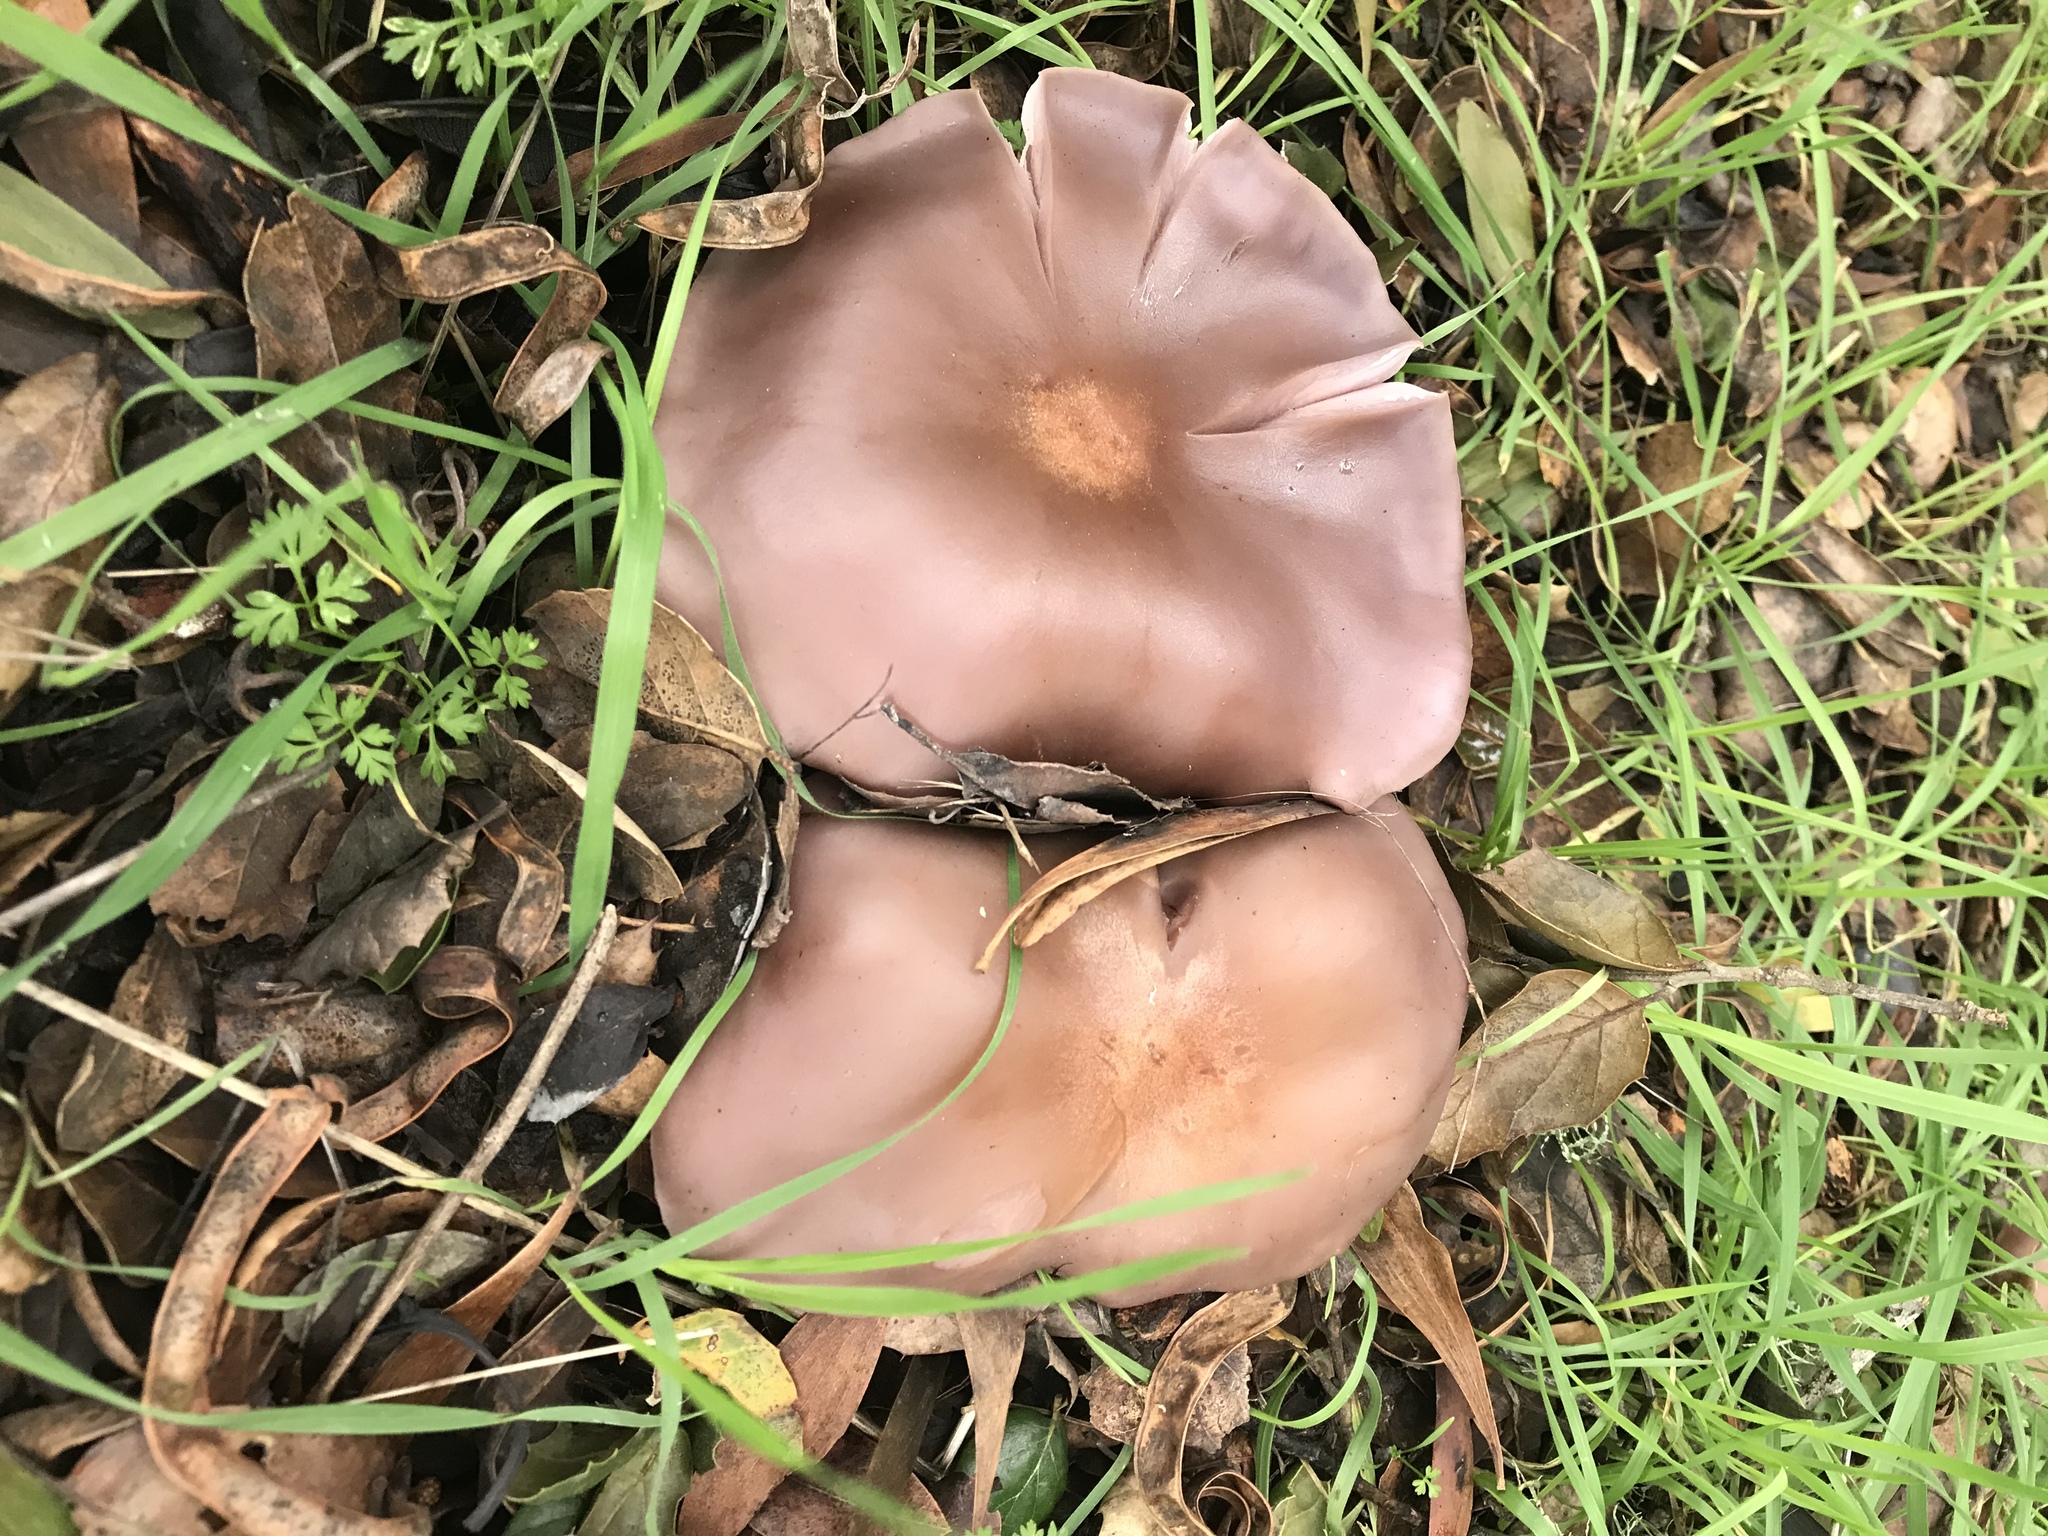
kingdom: Fungi
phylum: Basidiomycota
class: Agaricomycetes
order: Agaricales
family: Tricholomataceae
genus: Collybia
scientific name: Collybia
